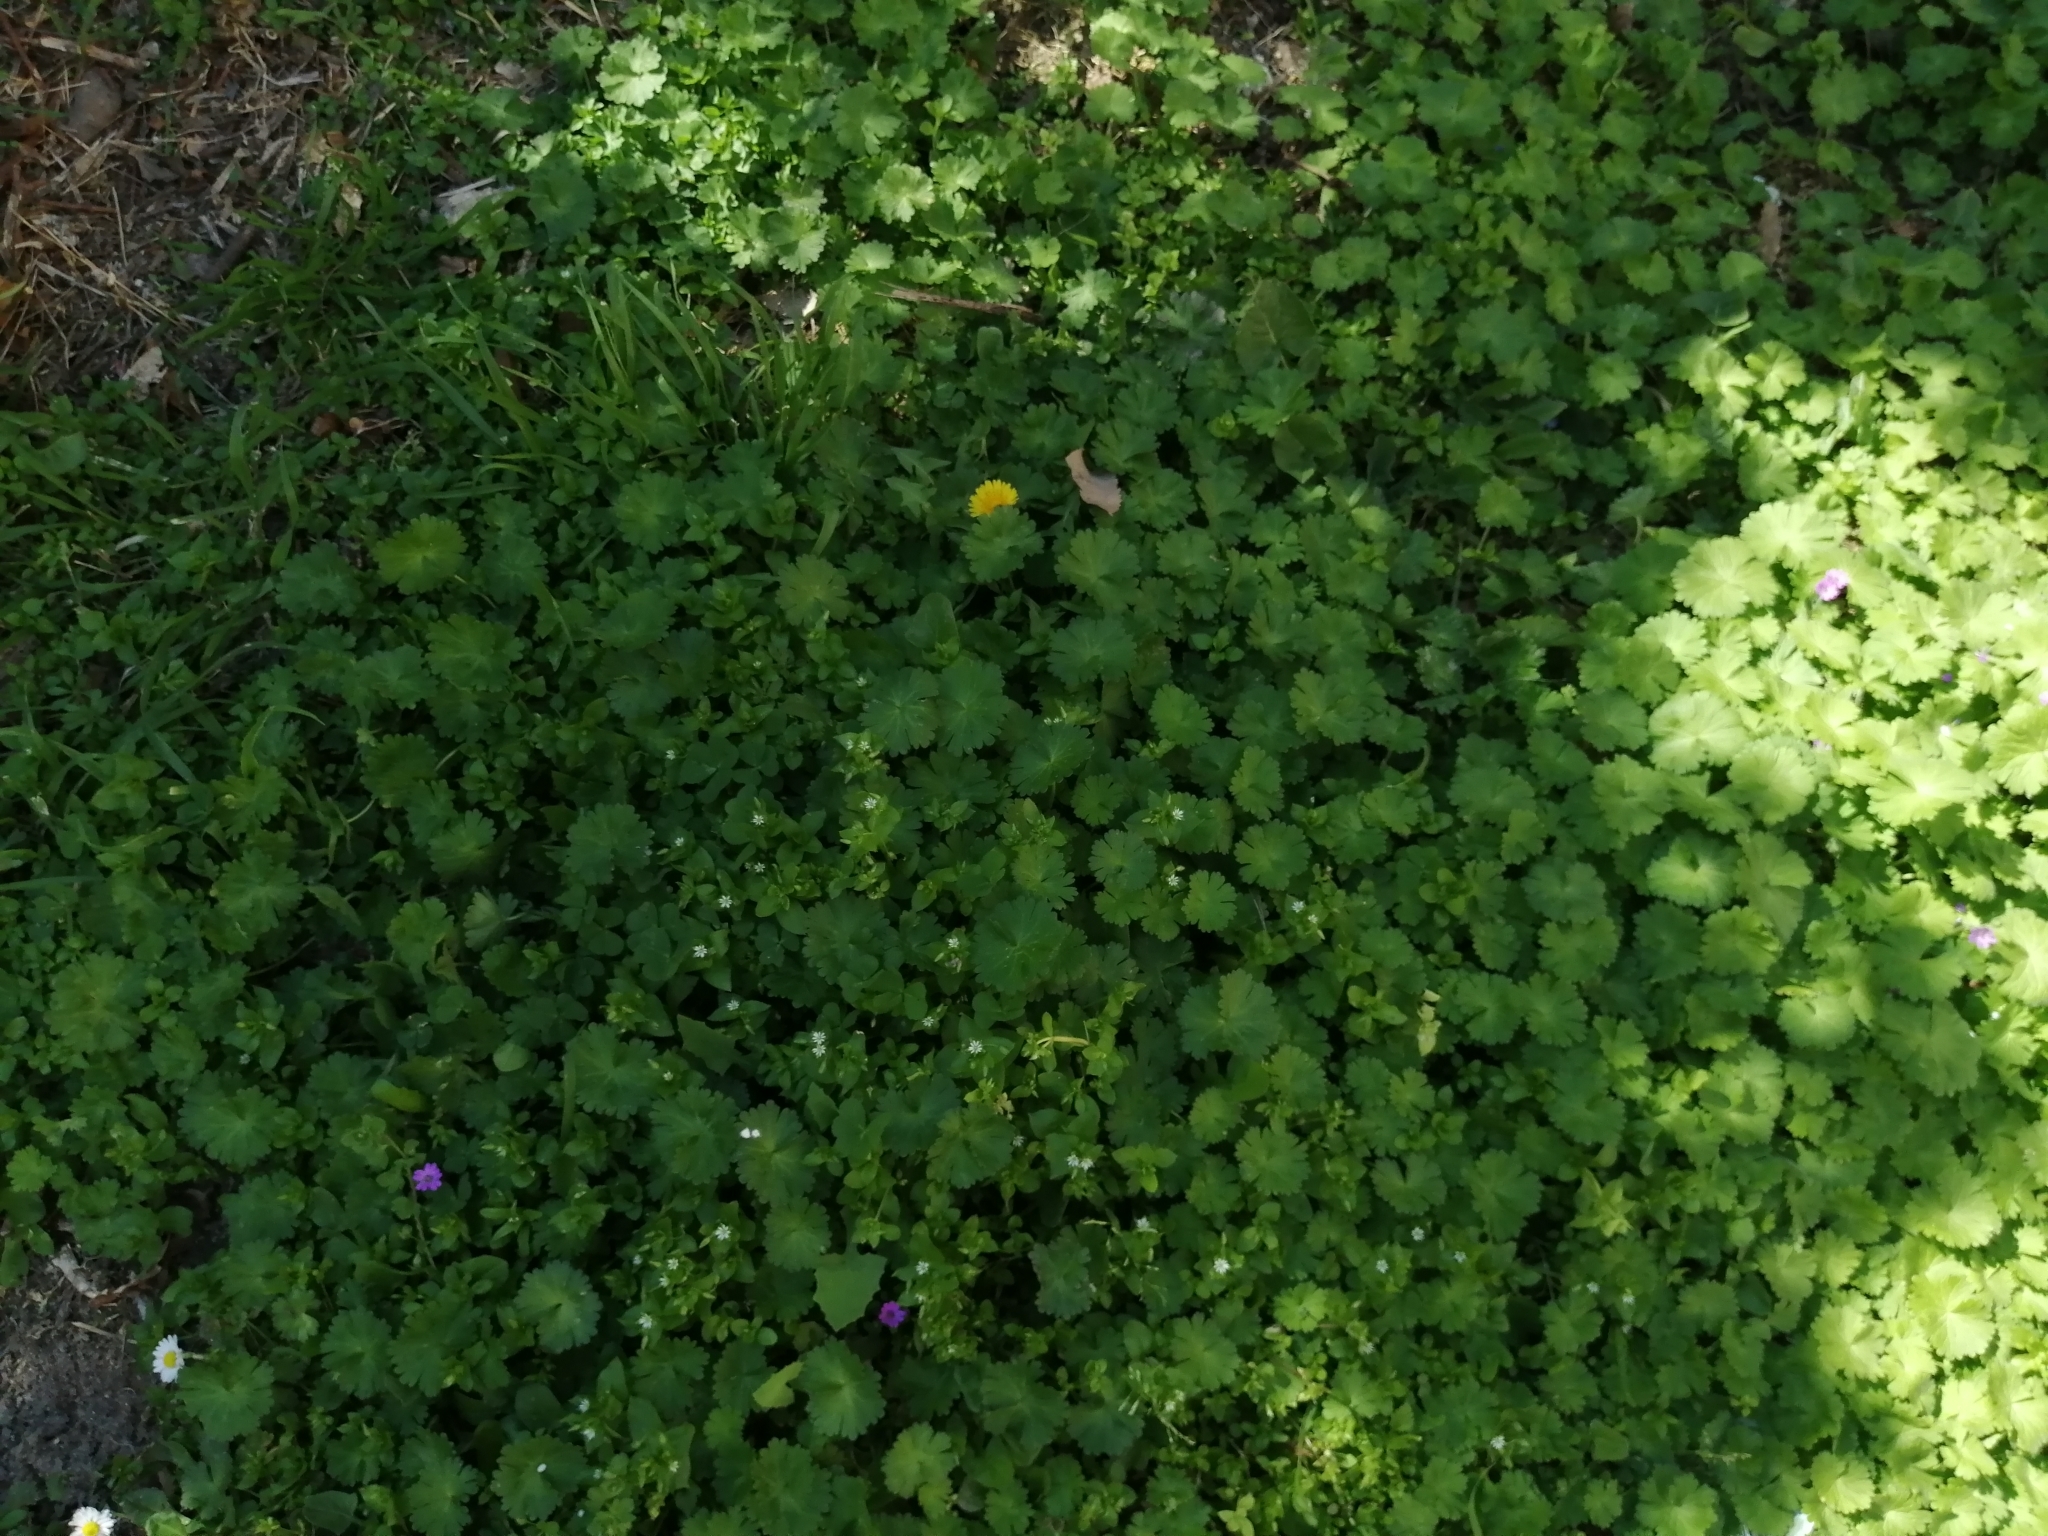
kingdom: Plantae
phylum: Tracheophyta
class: Magnoliopsida
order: Geraniales
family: Geraniaceae
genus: Geranium
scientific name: Geranium molle
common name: Dove's-foot crane's-bill
